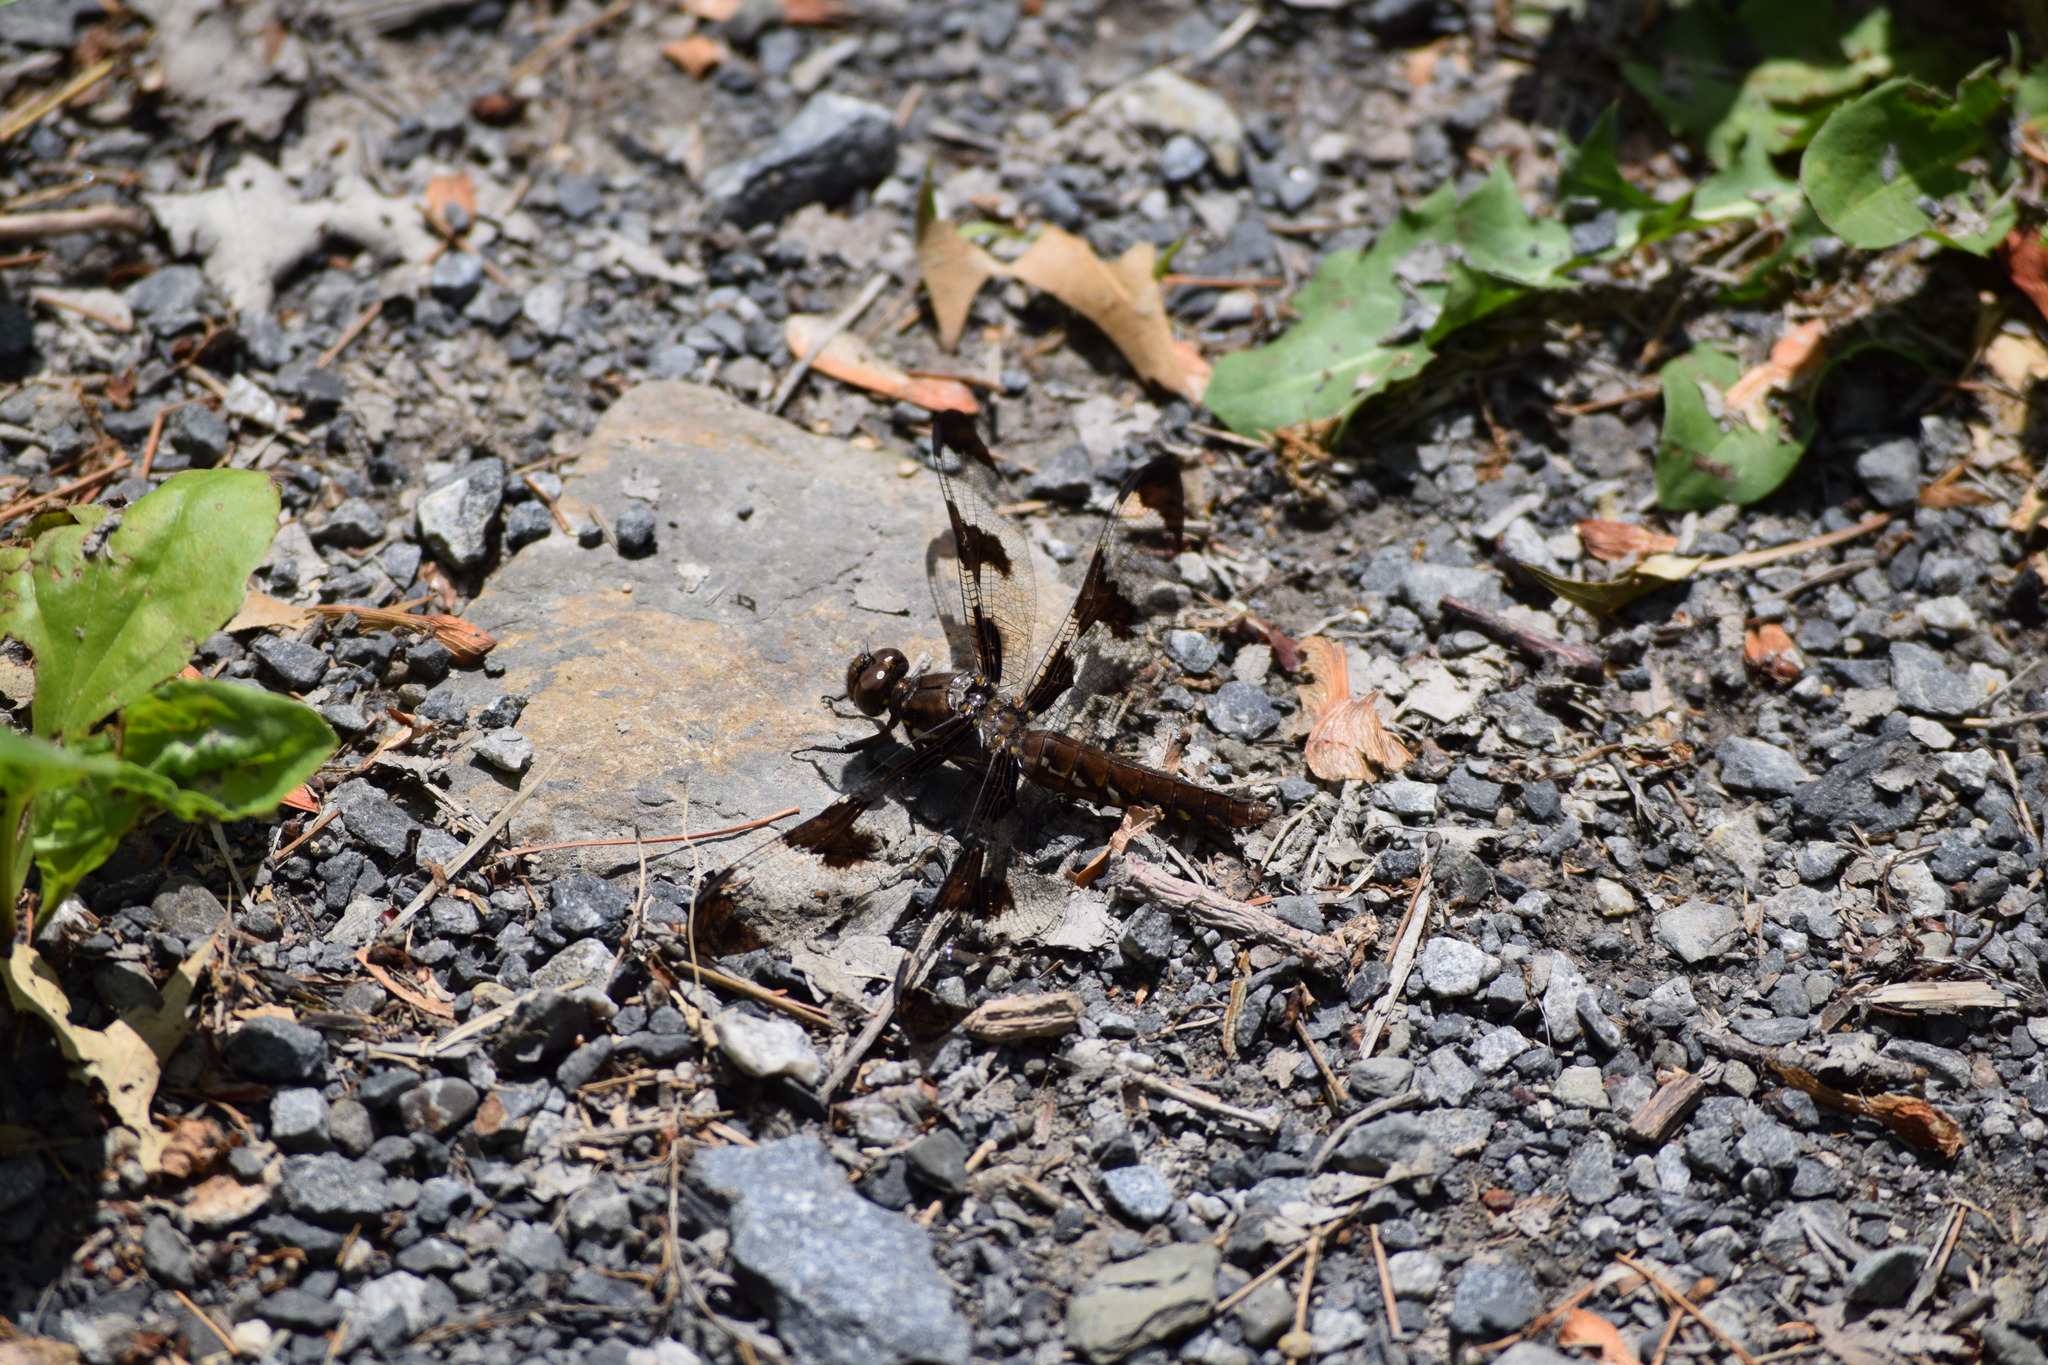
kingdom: Animalia
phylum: Arthropoda
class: Insecta
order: Odonata
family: Libellulidae
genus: Plathemis
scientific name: Plathemis lydia
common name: Common whitetail
